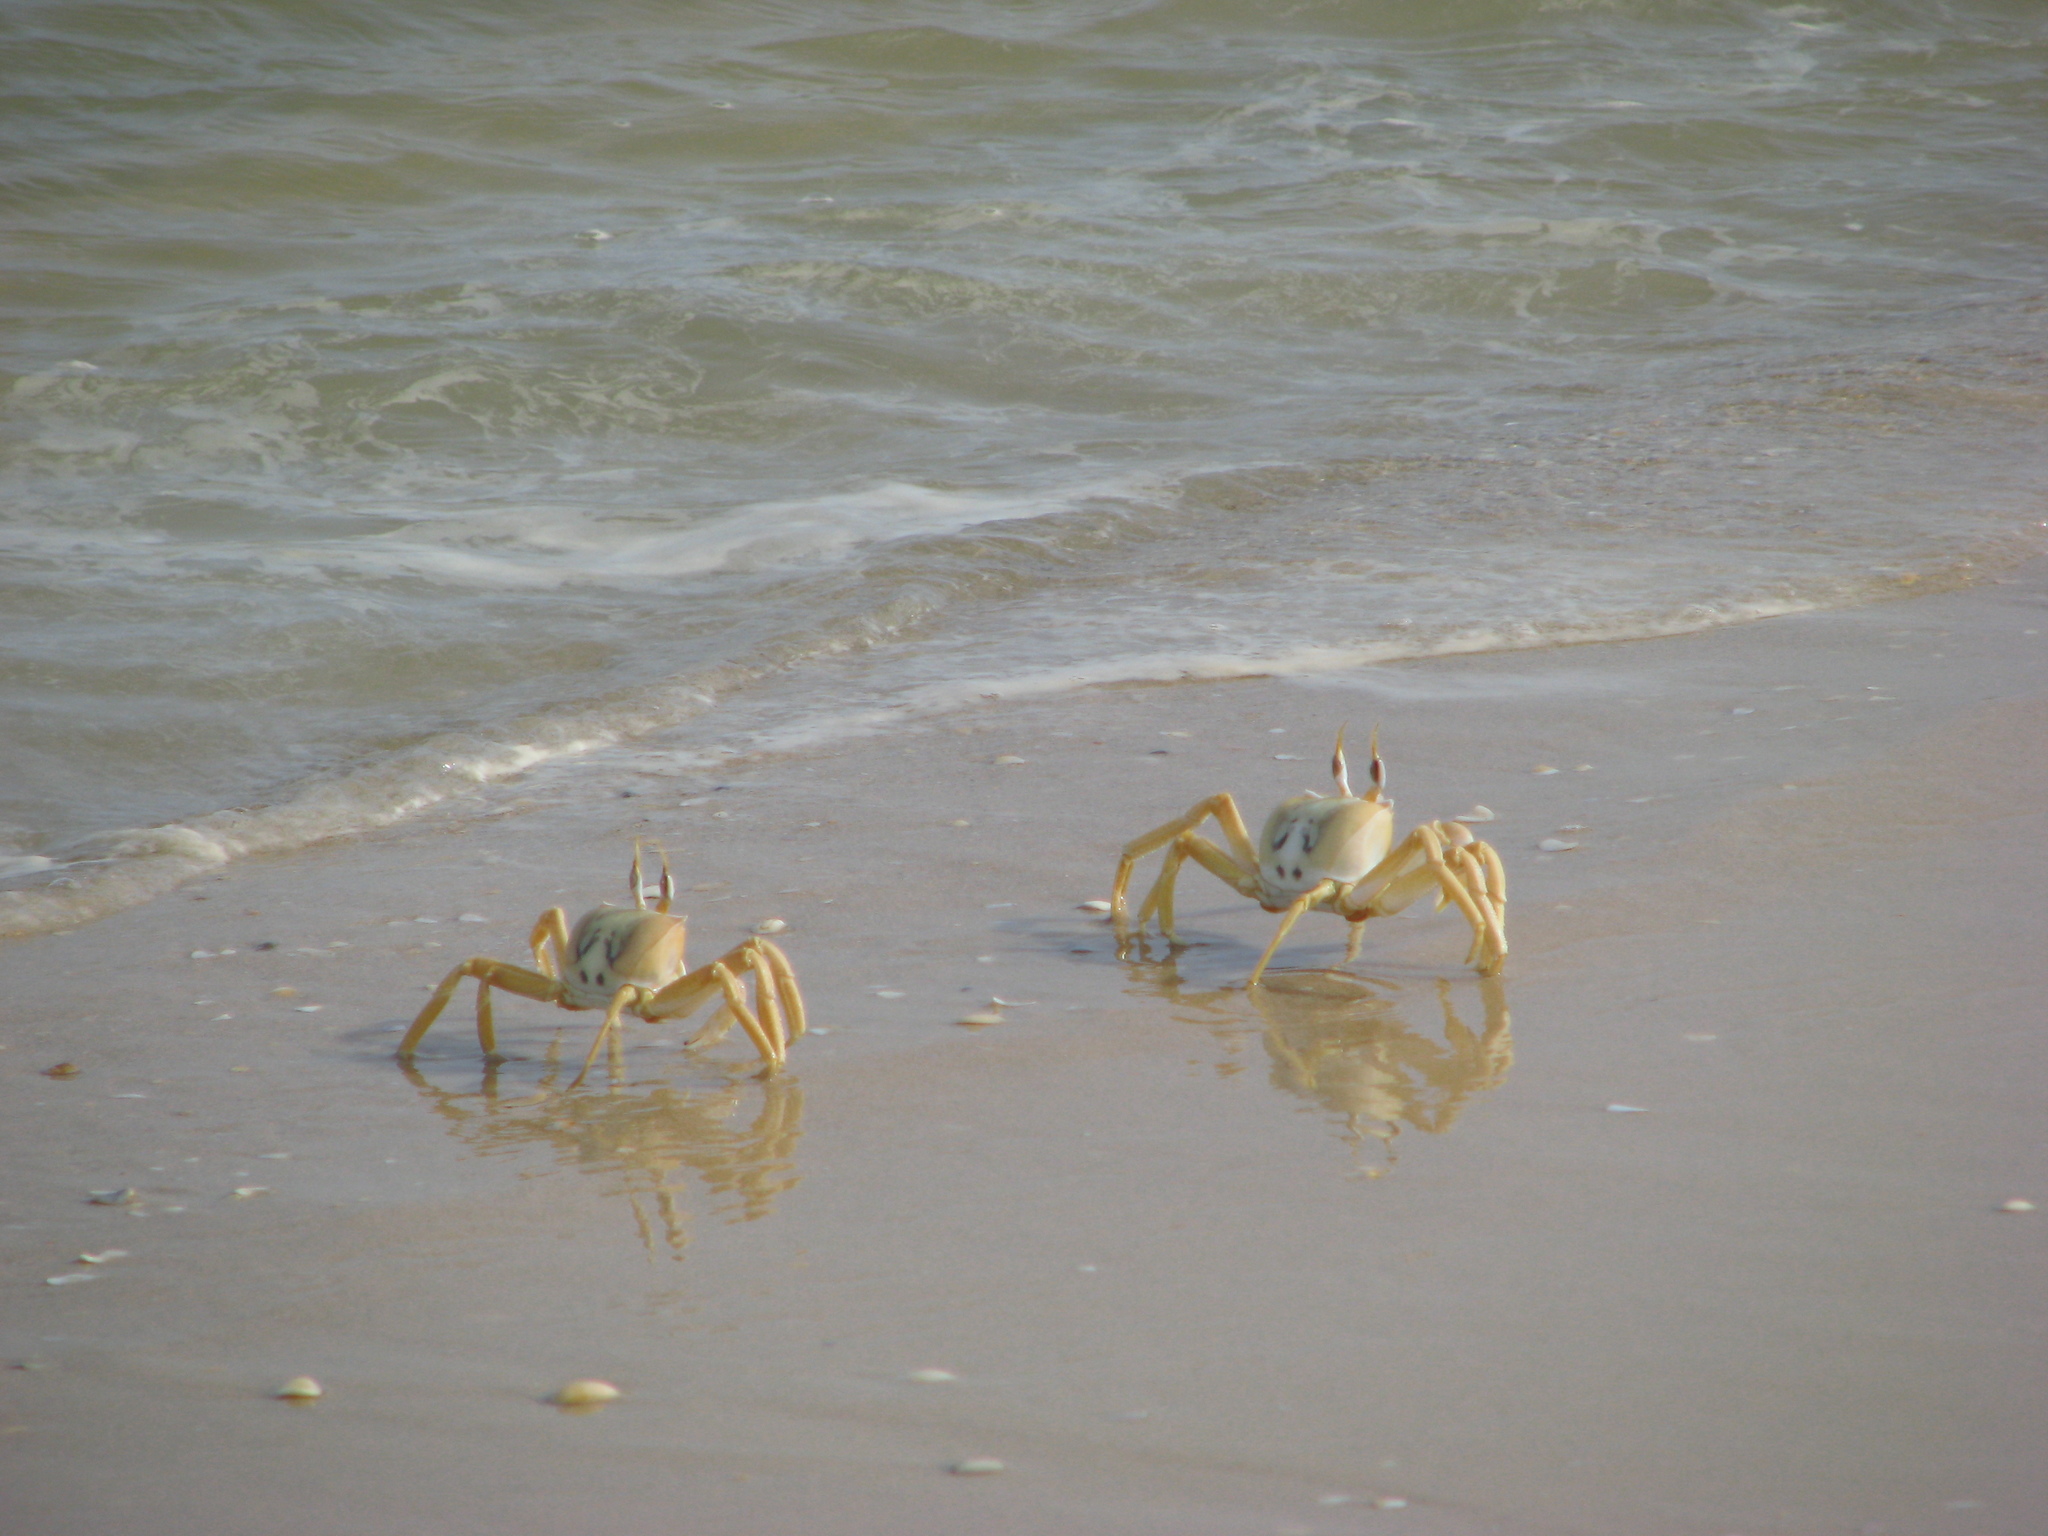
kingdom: Animalia
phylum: Arthropoda
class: Malacostraca
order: Decapoda
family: Ocypodidae
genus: Ocypode
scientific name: Ocypode cursor
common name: Tufted ghost crab
